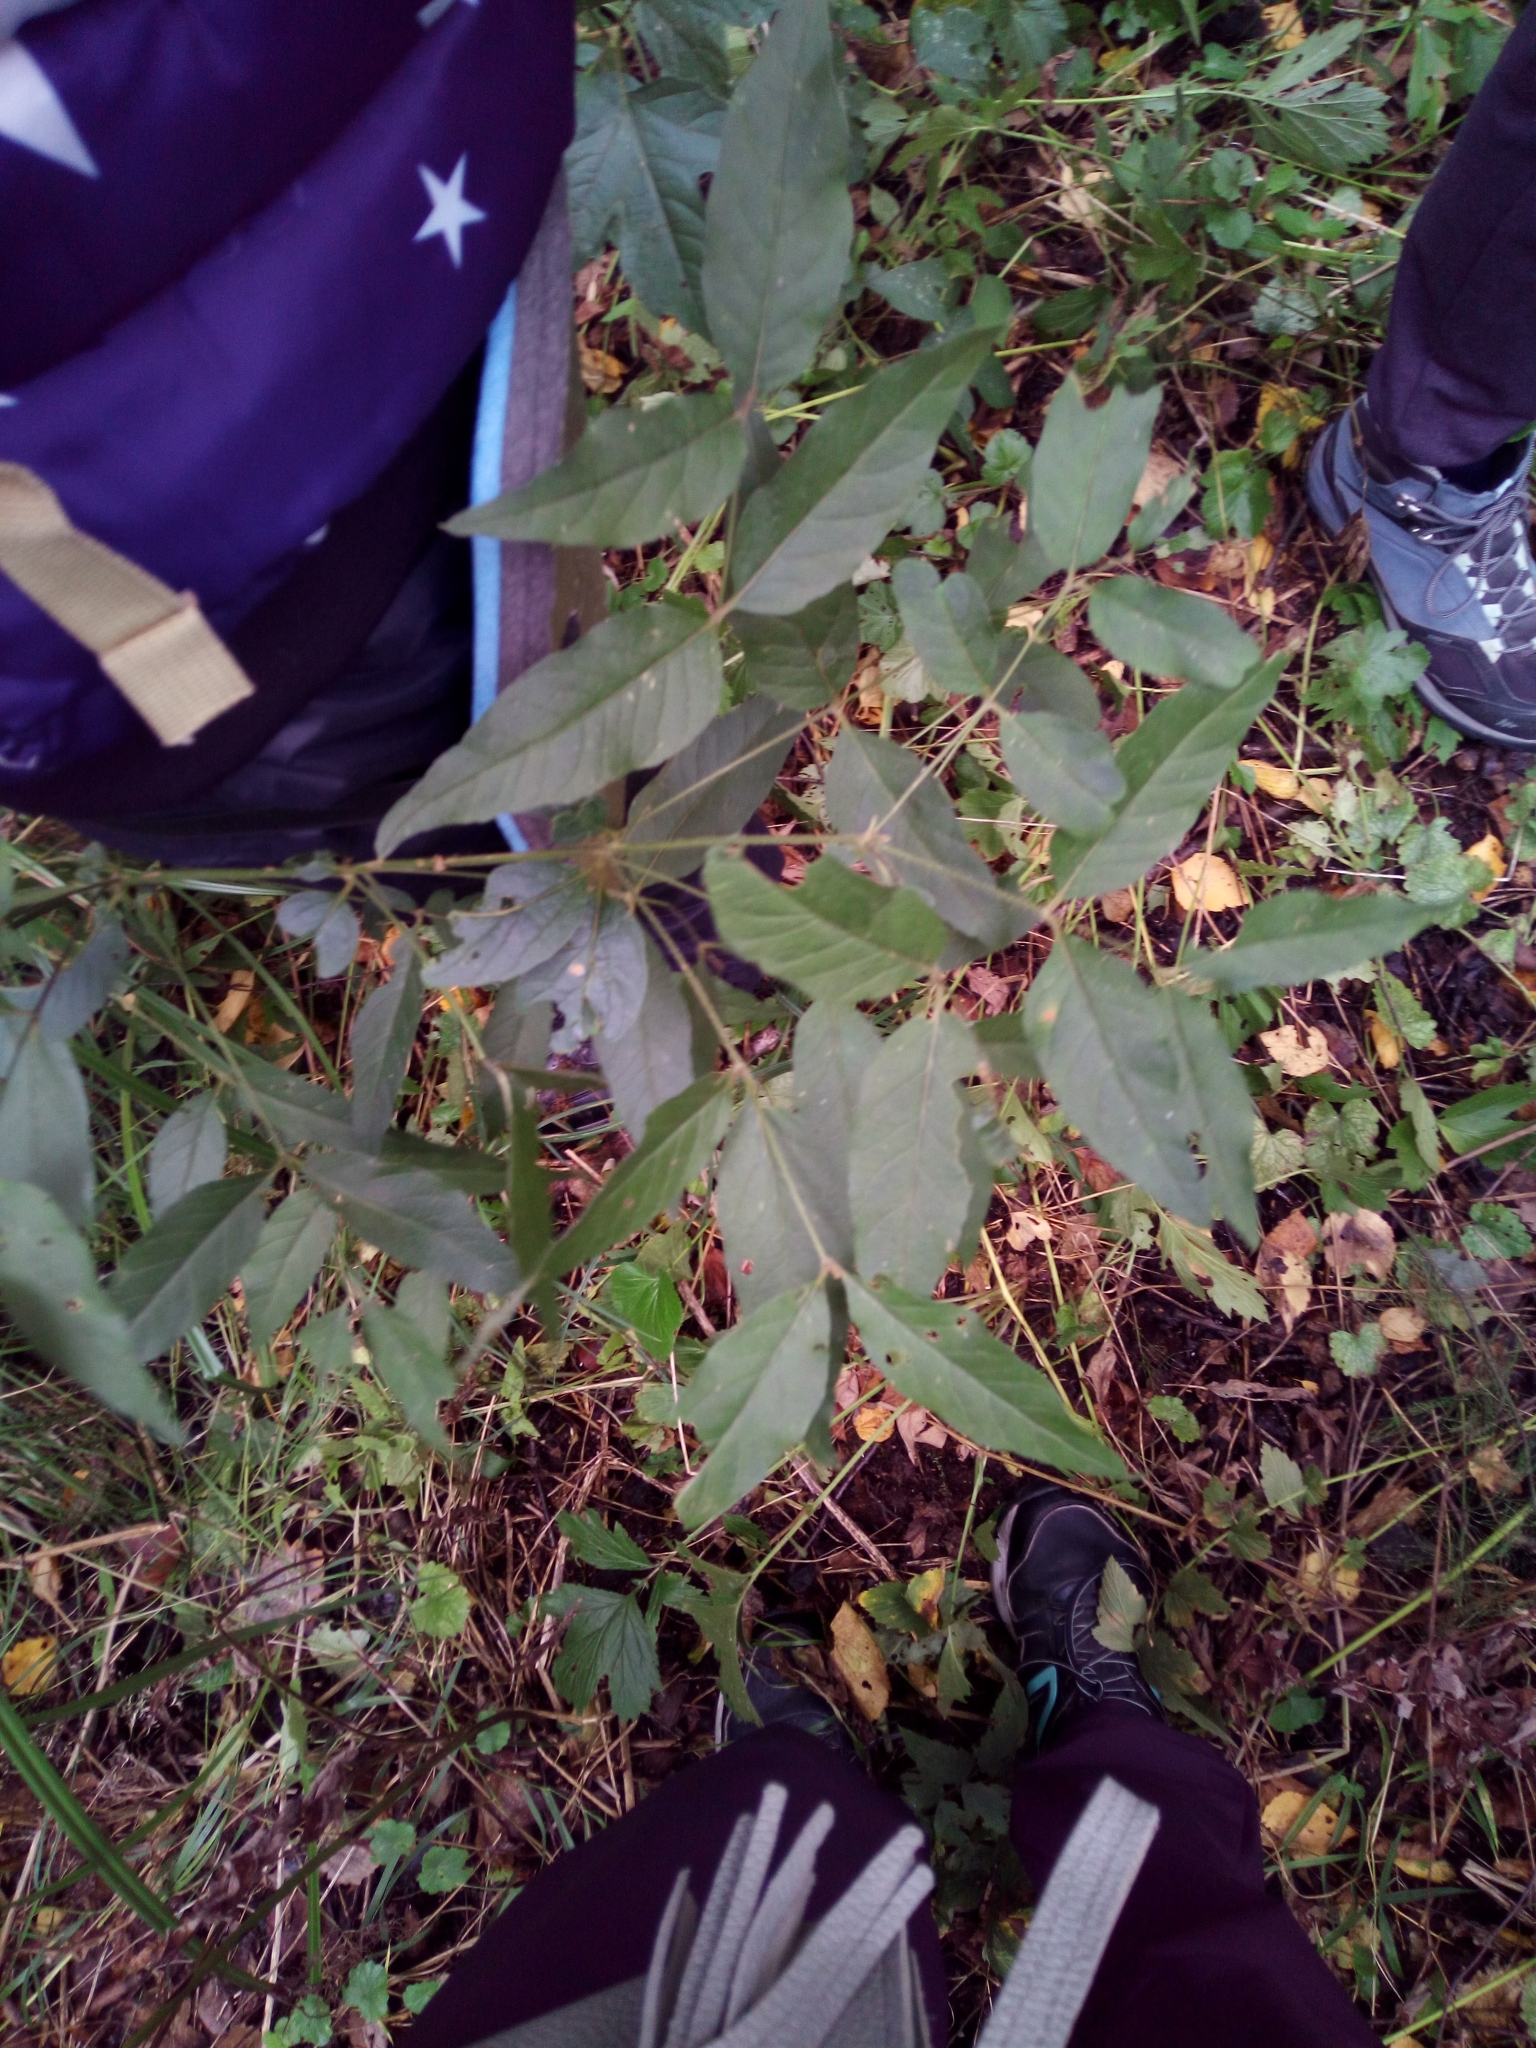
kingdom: Plantae
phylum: Tracheophyta
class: Magnoliopsida
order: Ericales
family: Primulaceae
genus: Lysimachia
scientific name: Lysimachia vulgaris
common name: Yellow loosestrife
